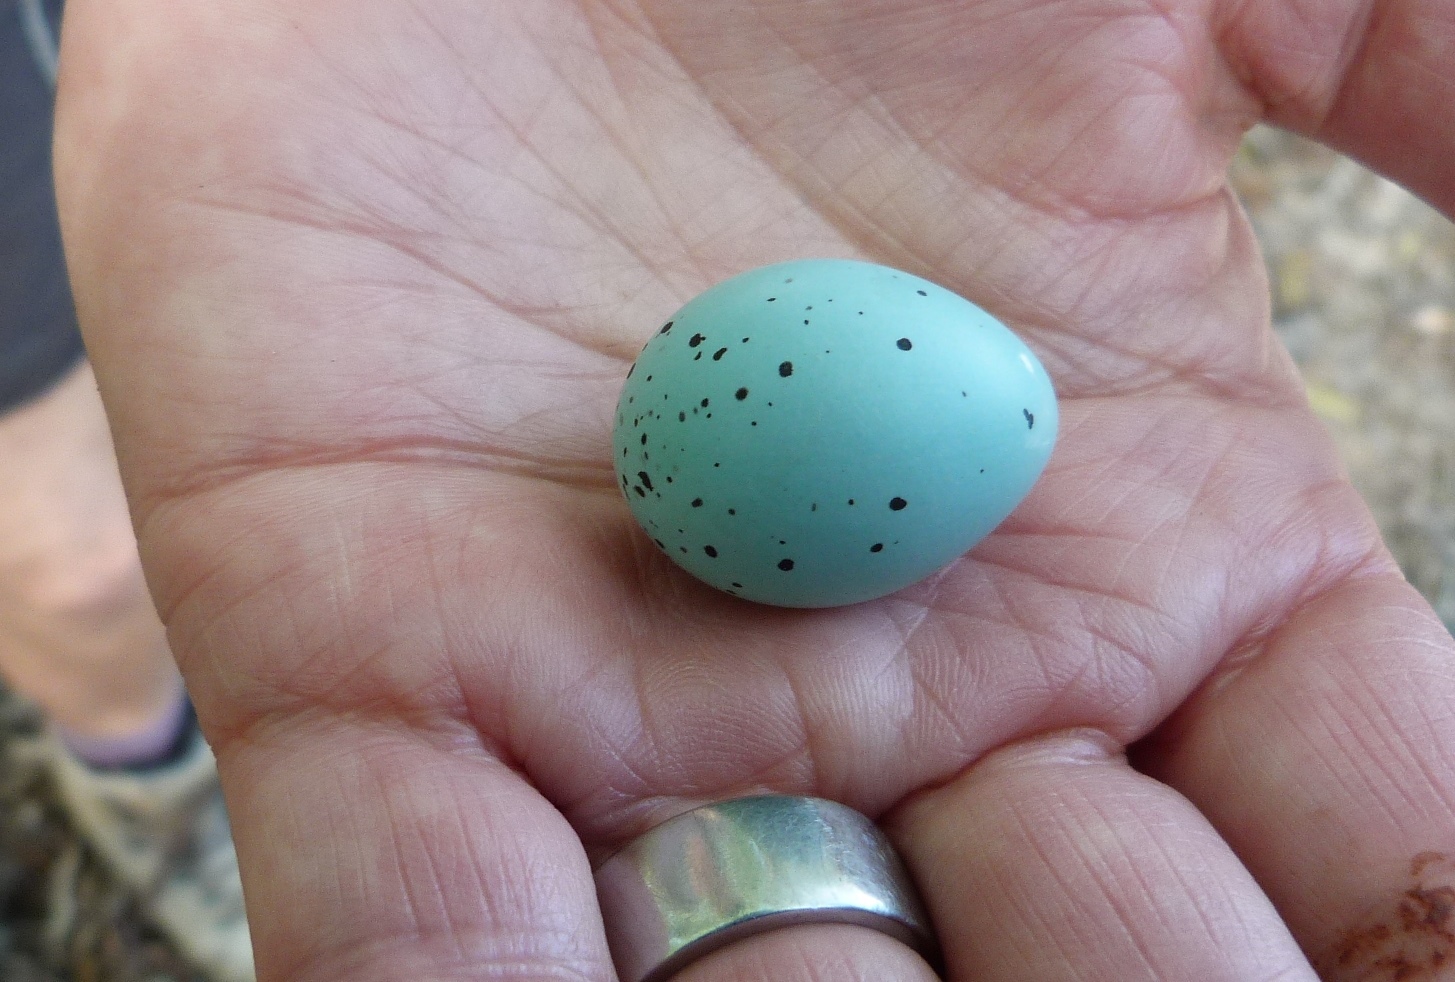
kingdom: Animalia
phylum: Chordata
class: Aves
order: Passeriformes
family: Turdidae
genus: Turdus
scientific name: Turdus philomelos
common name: Song thrush
